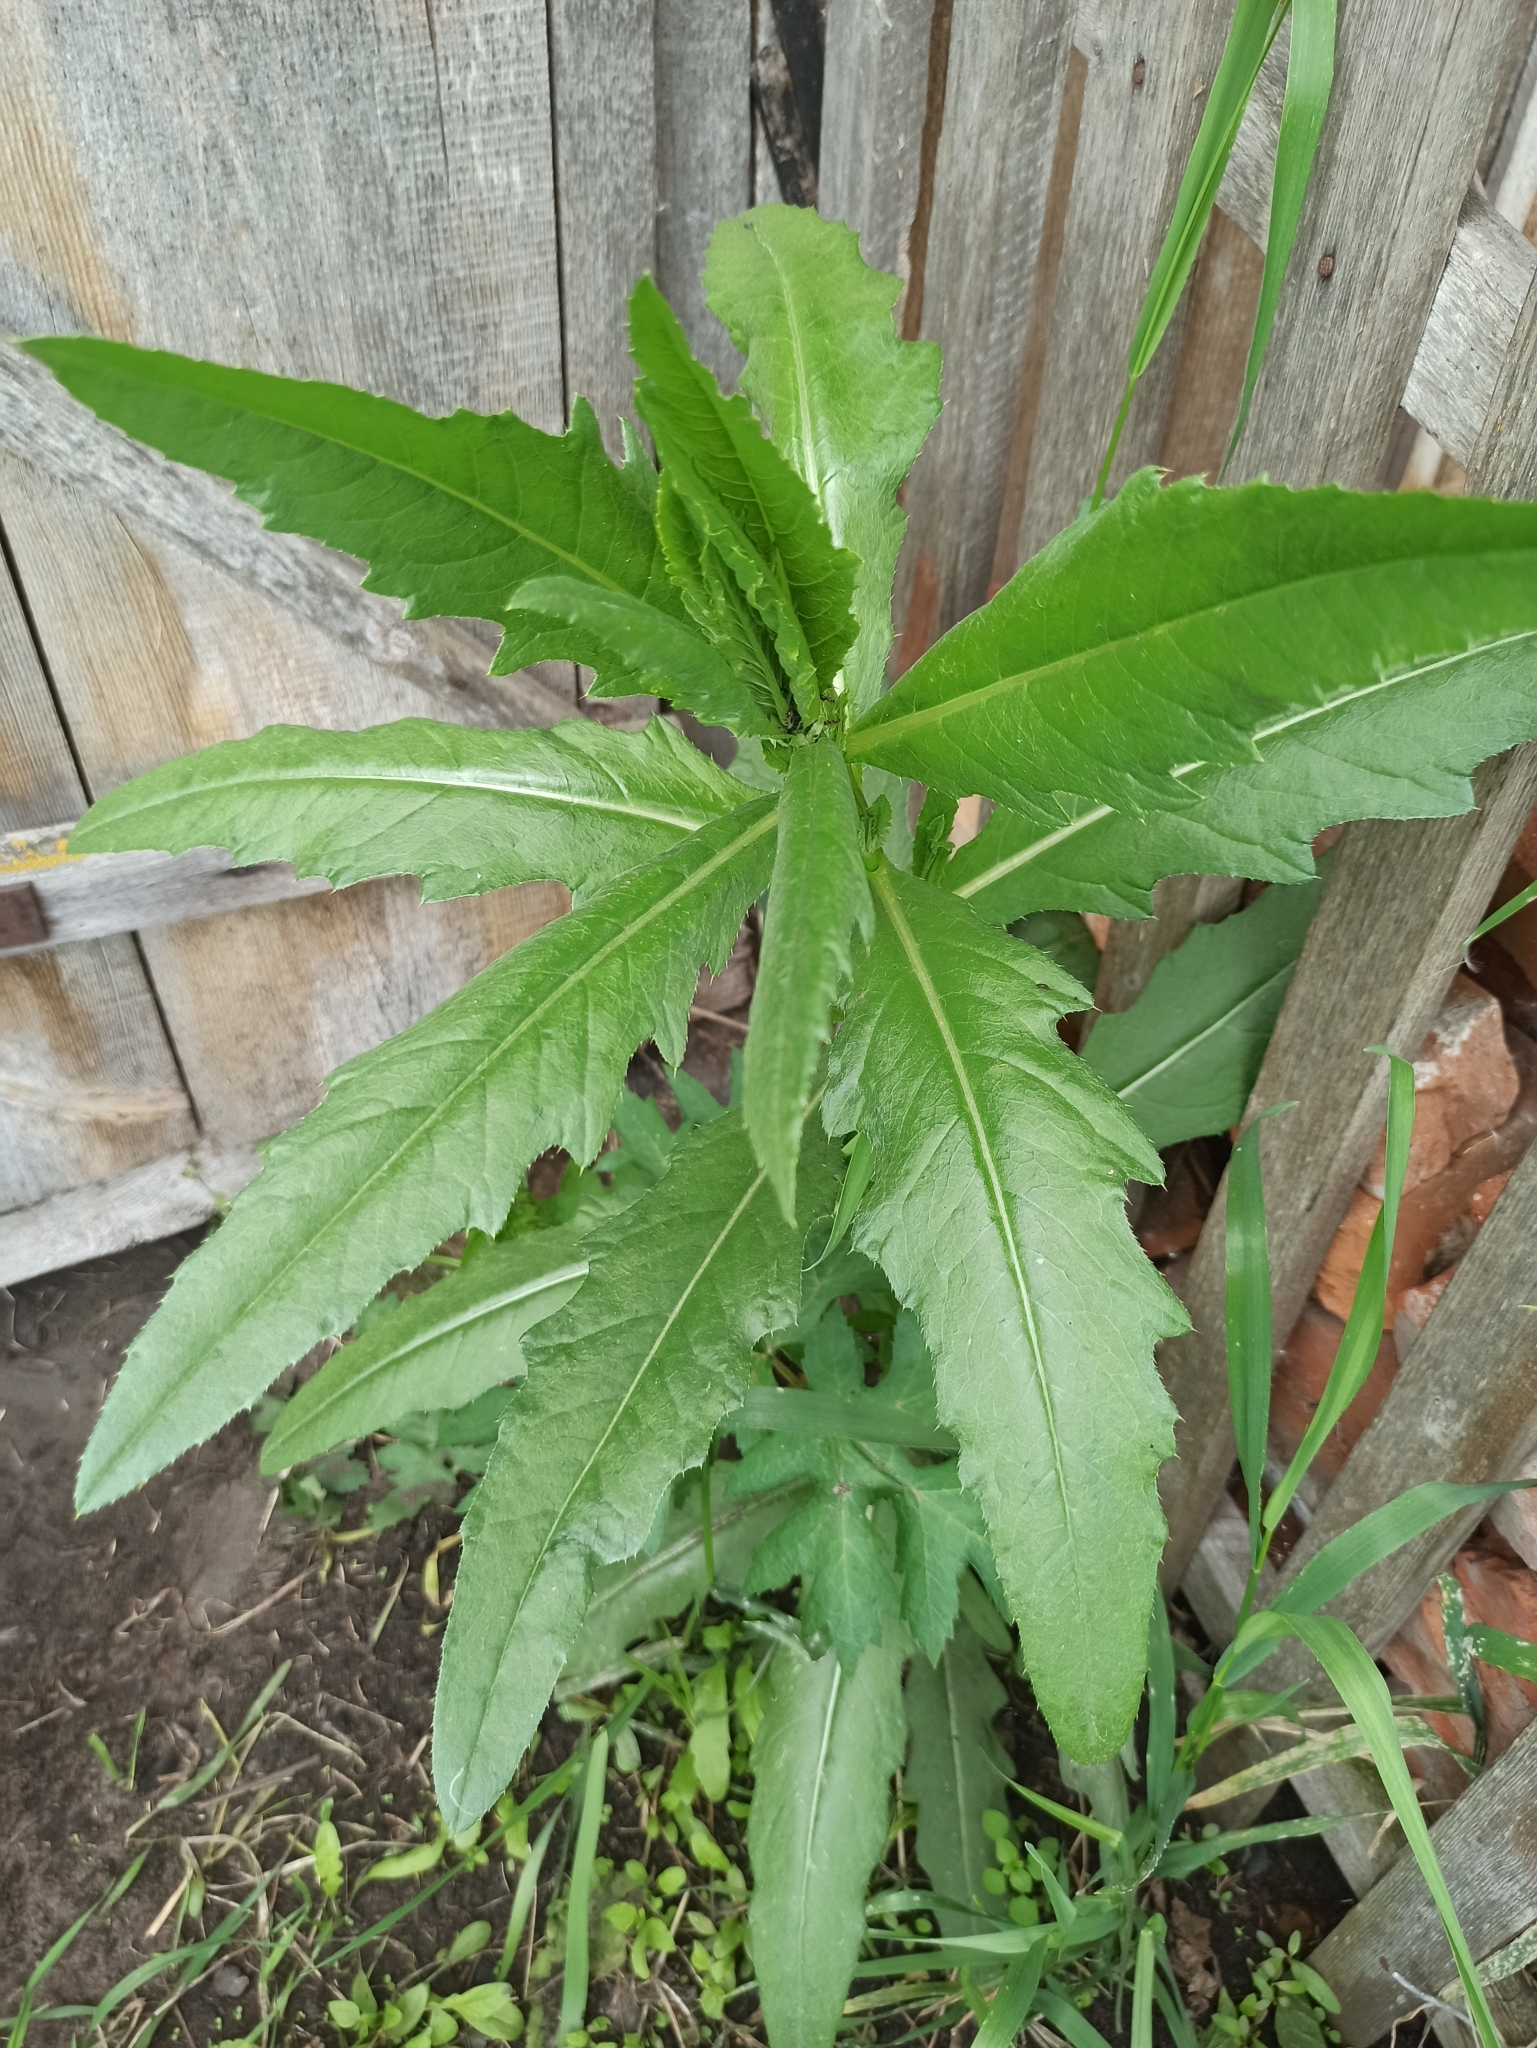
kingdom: Plantae
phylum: Tracheophyta
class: Magnoliopsida
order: Asterales
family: Asteraceae
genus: Cirsium
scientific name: Cirsium arvense
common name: Creeping thistle
